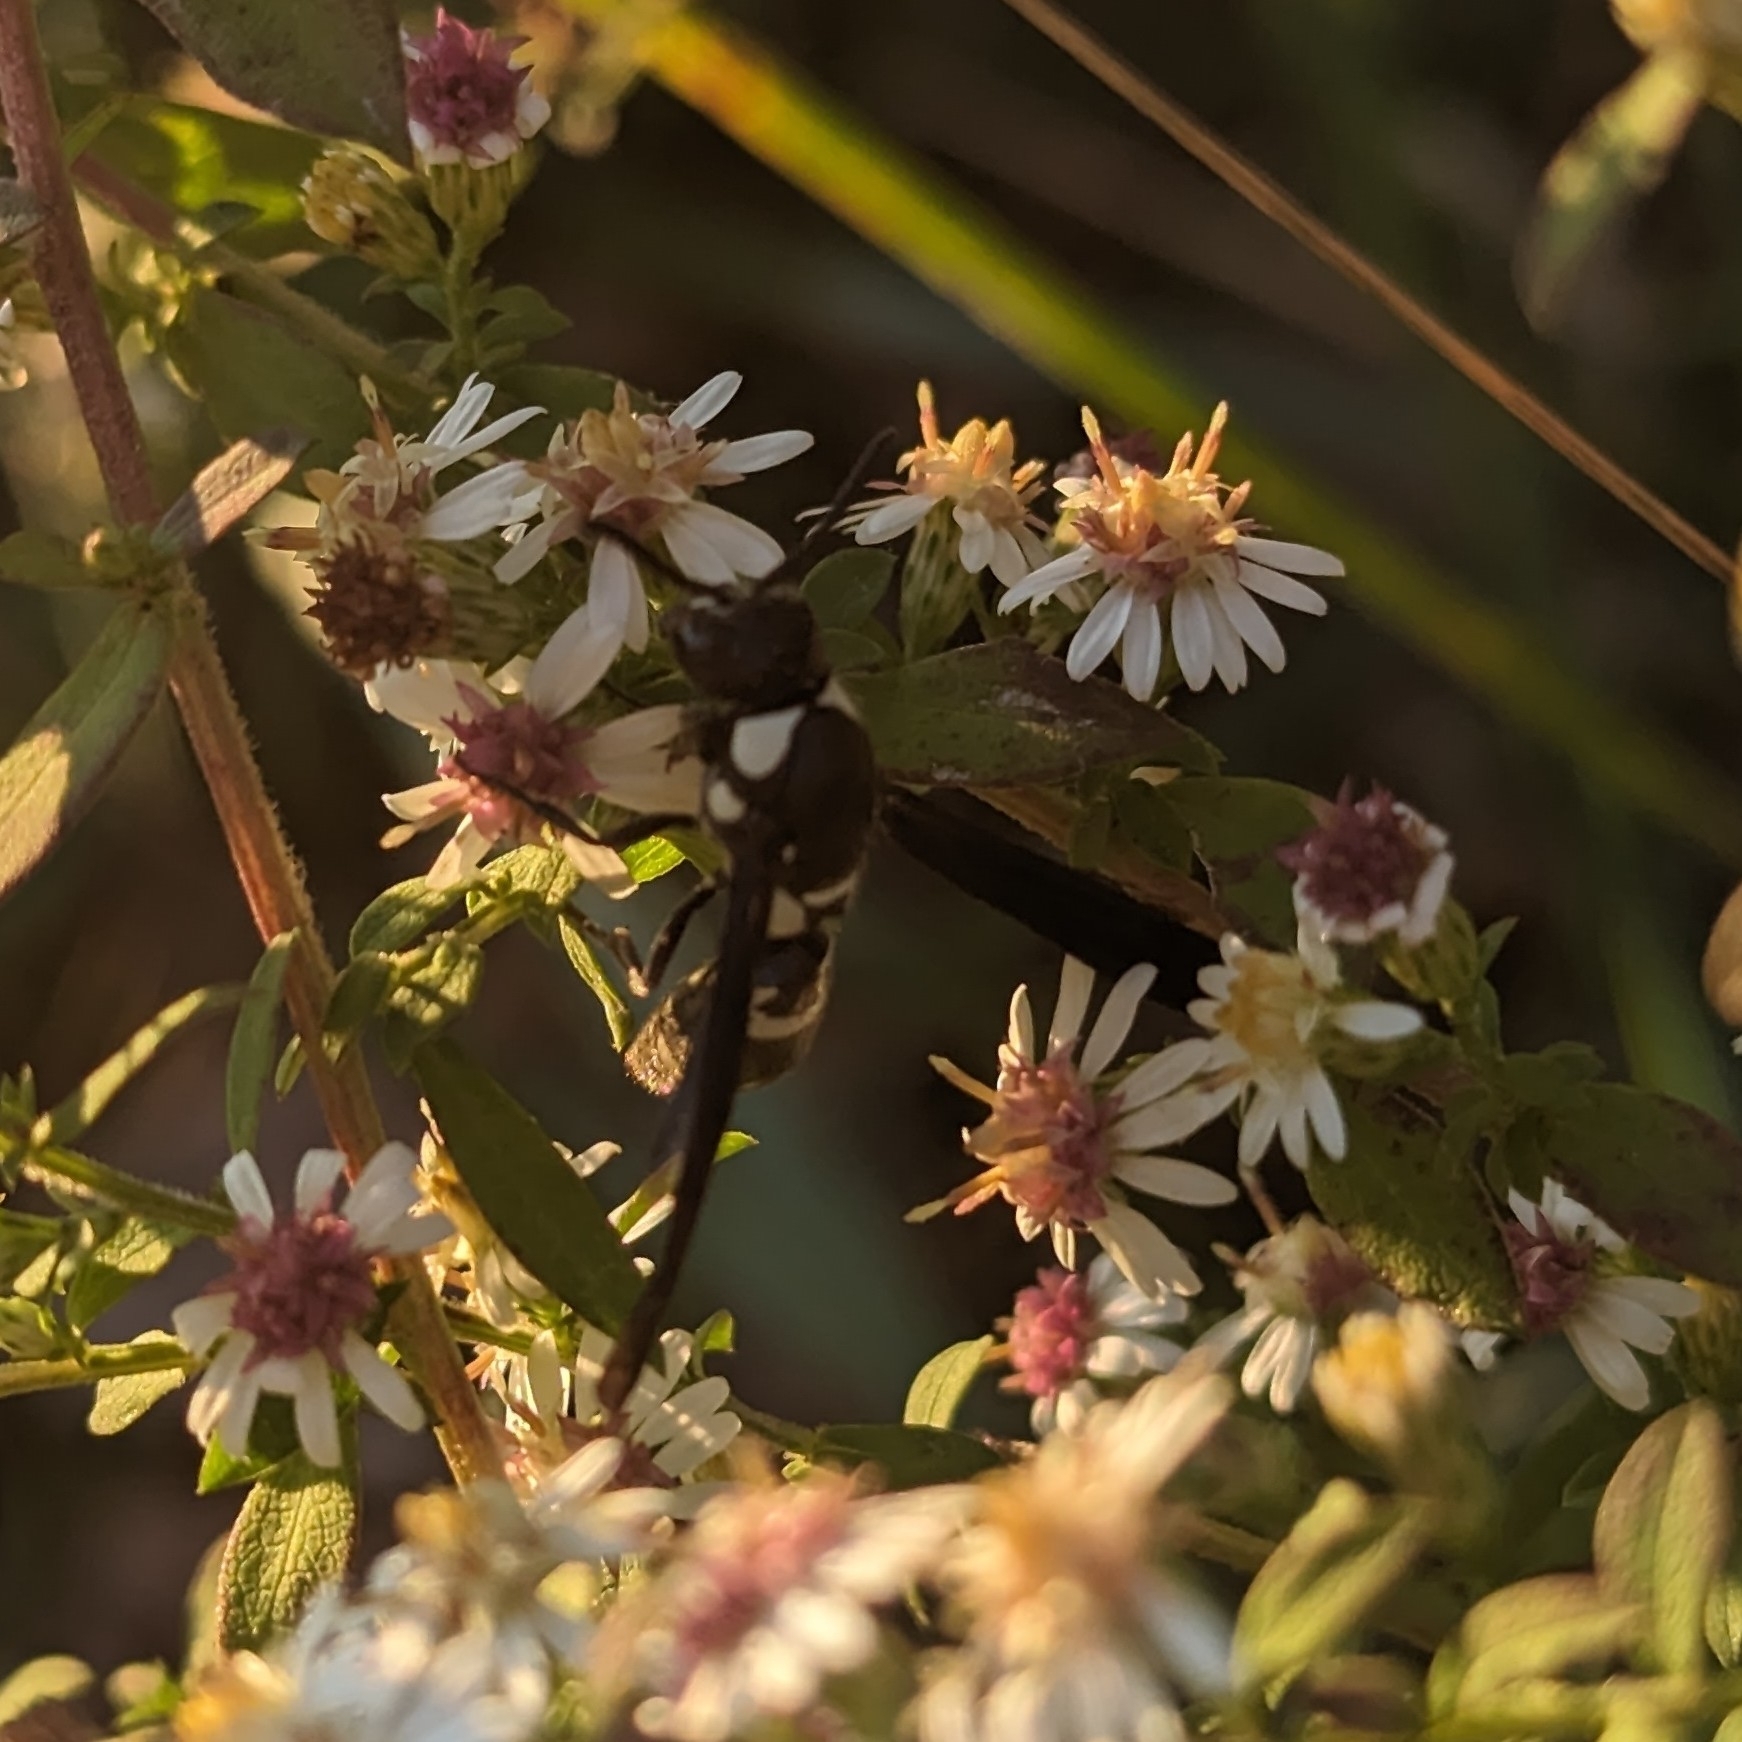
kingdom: Animalia
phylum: Arthropoda
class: Insecta
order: Hymenoptera
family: Eumenidae
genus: Pseudodynerus
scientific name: Pseudodynerus quadrisectus
